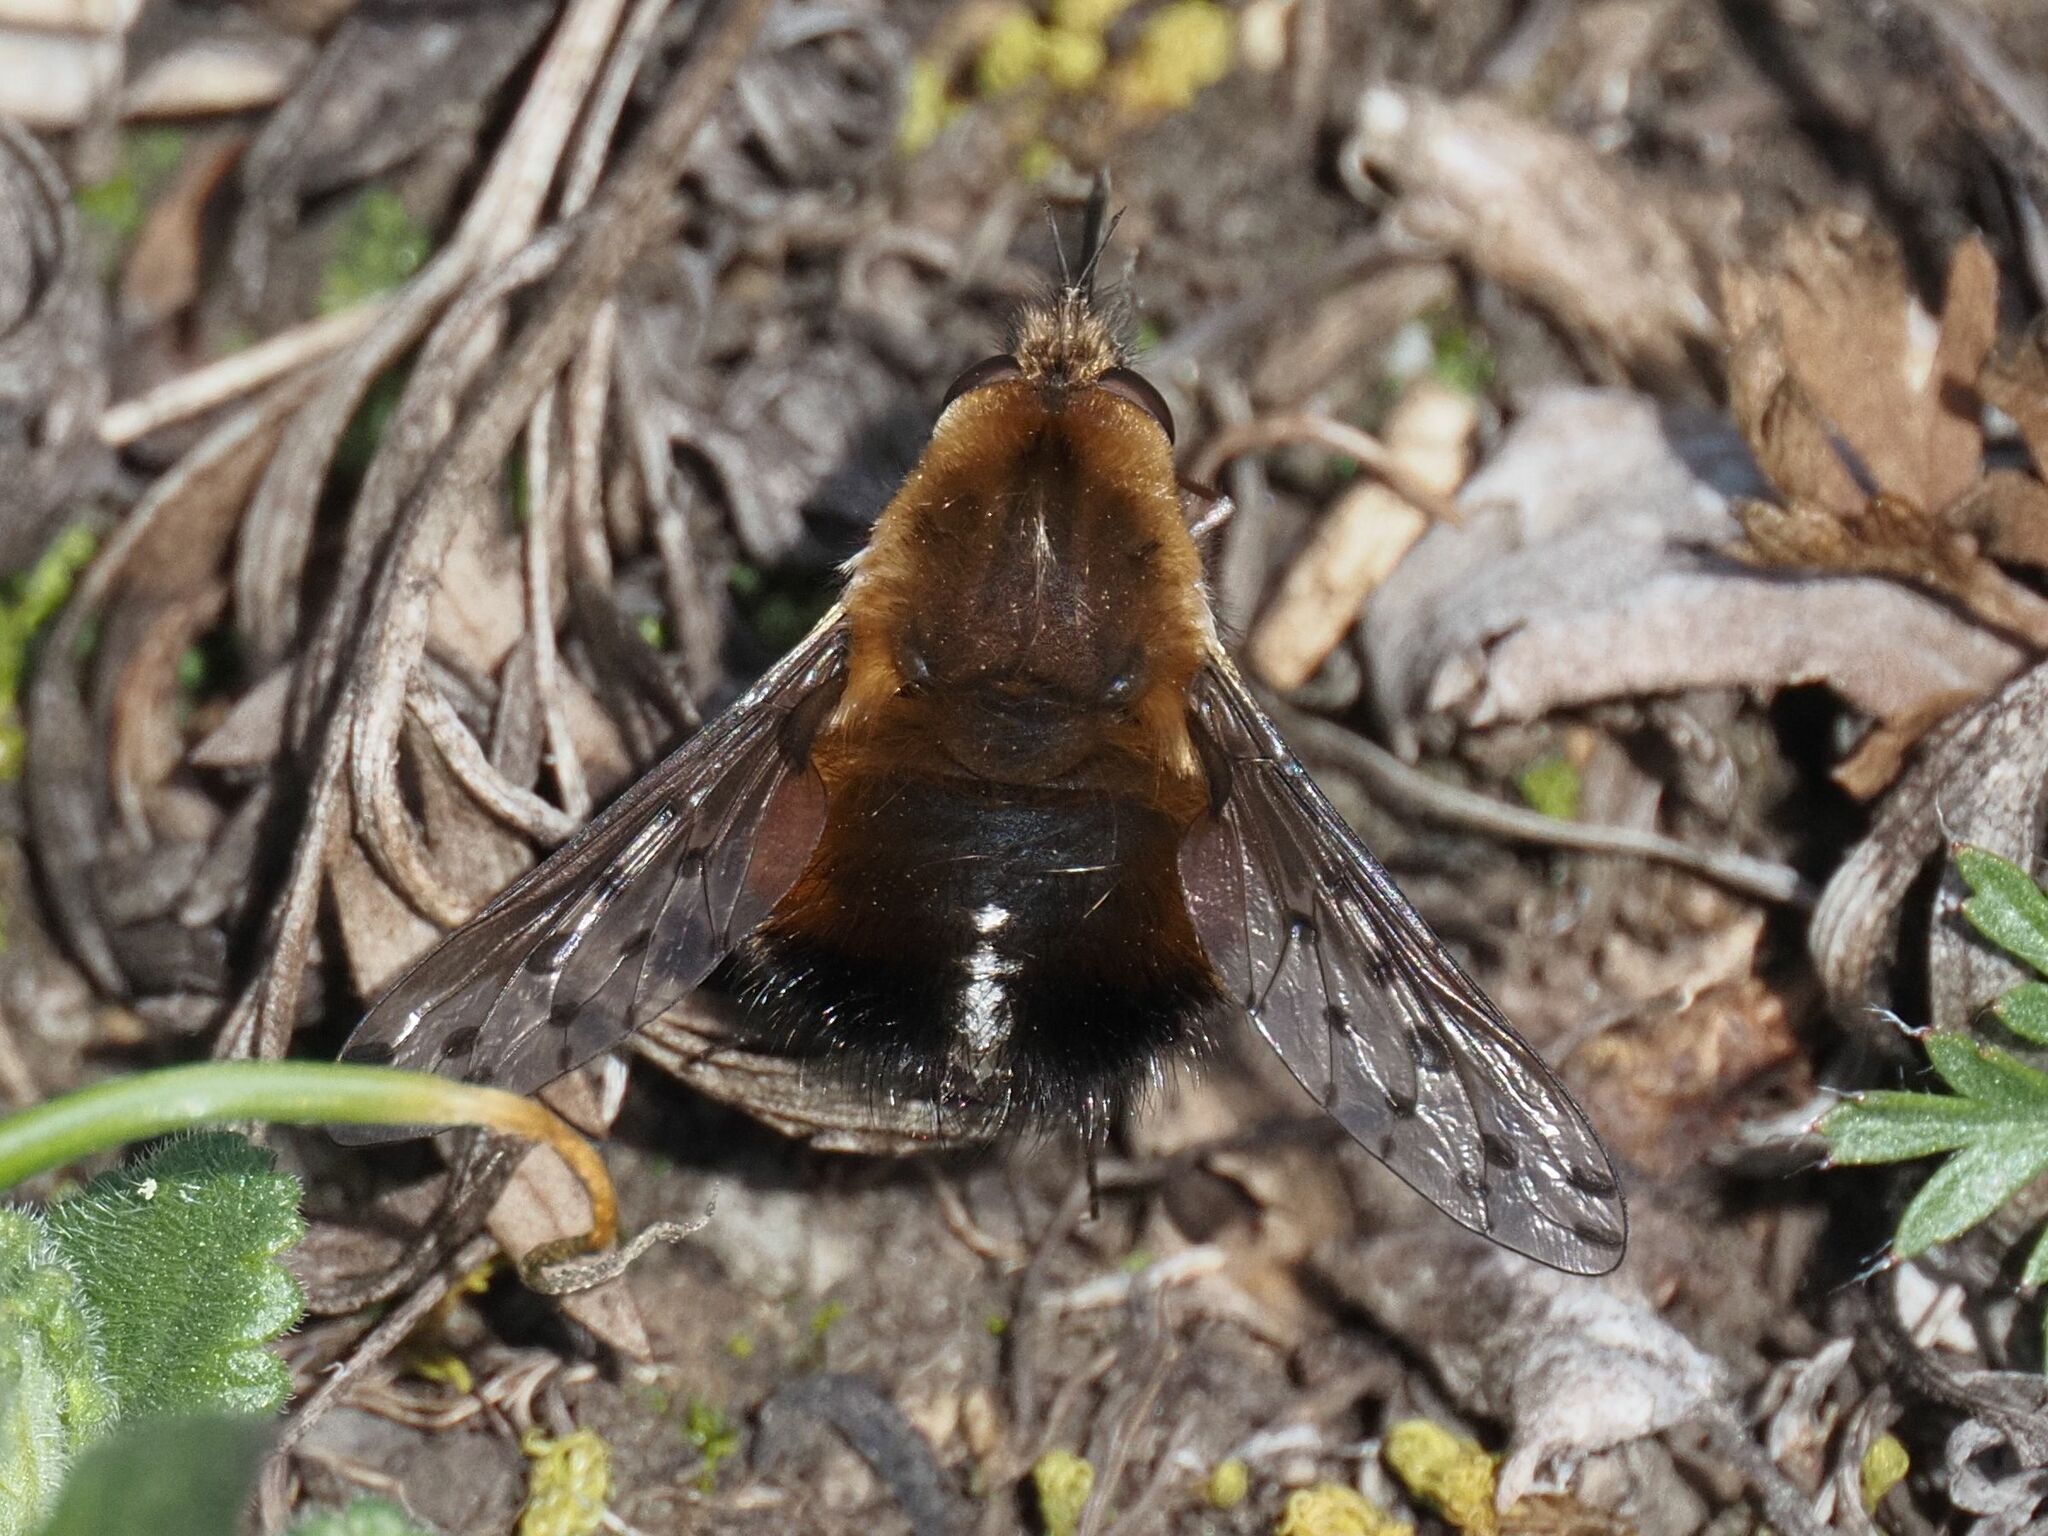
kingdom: Animalia
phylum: Arthropoda
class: Insecta
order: Diptera
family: Bombyliidae
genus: Bombylius
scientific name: Bombylius discolor
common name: Dotted bee-fly
